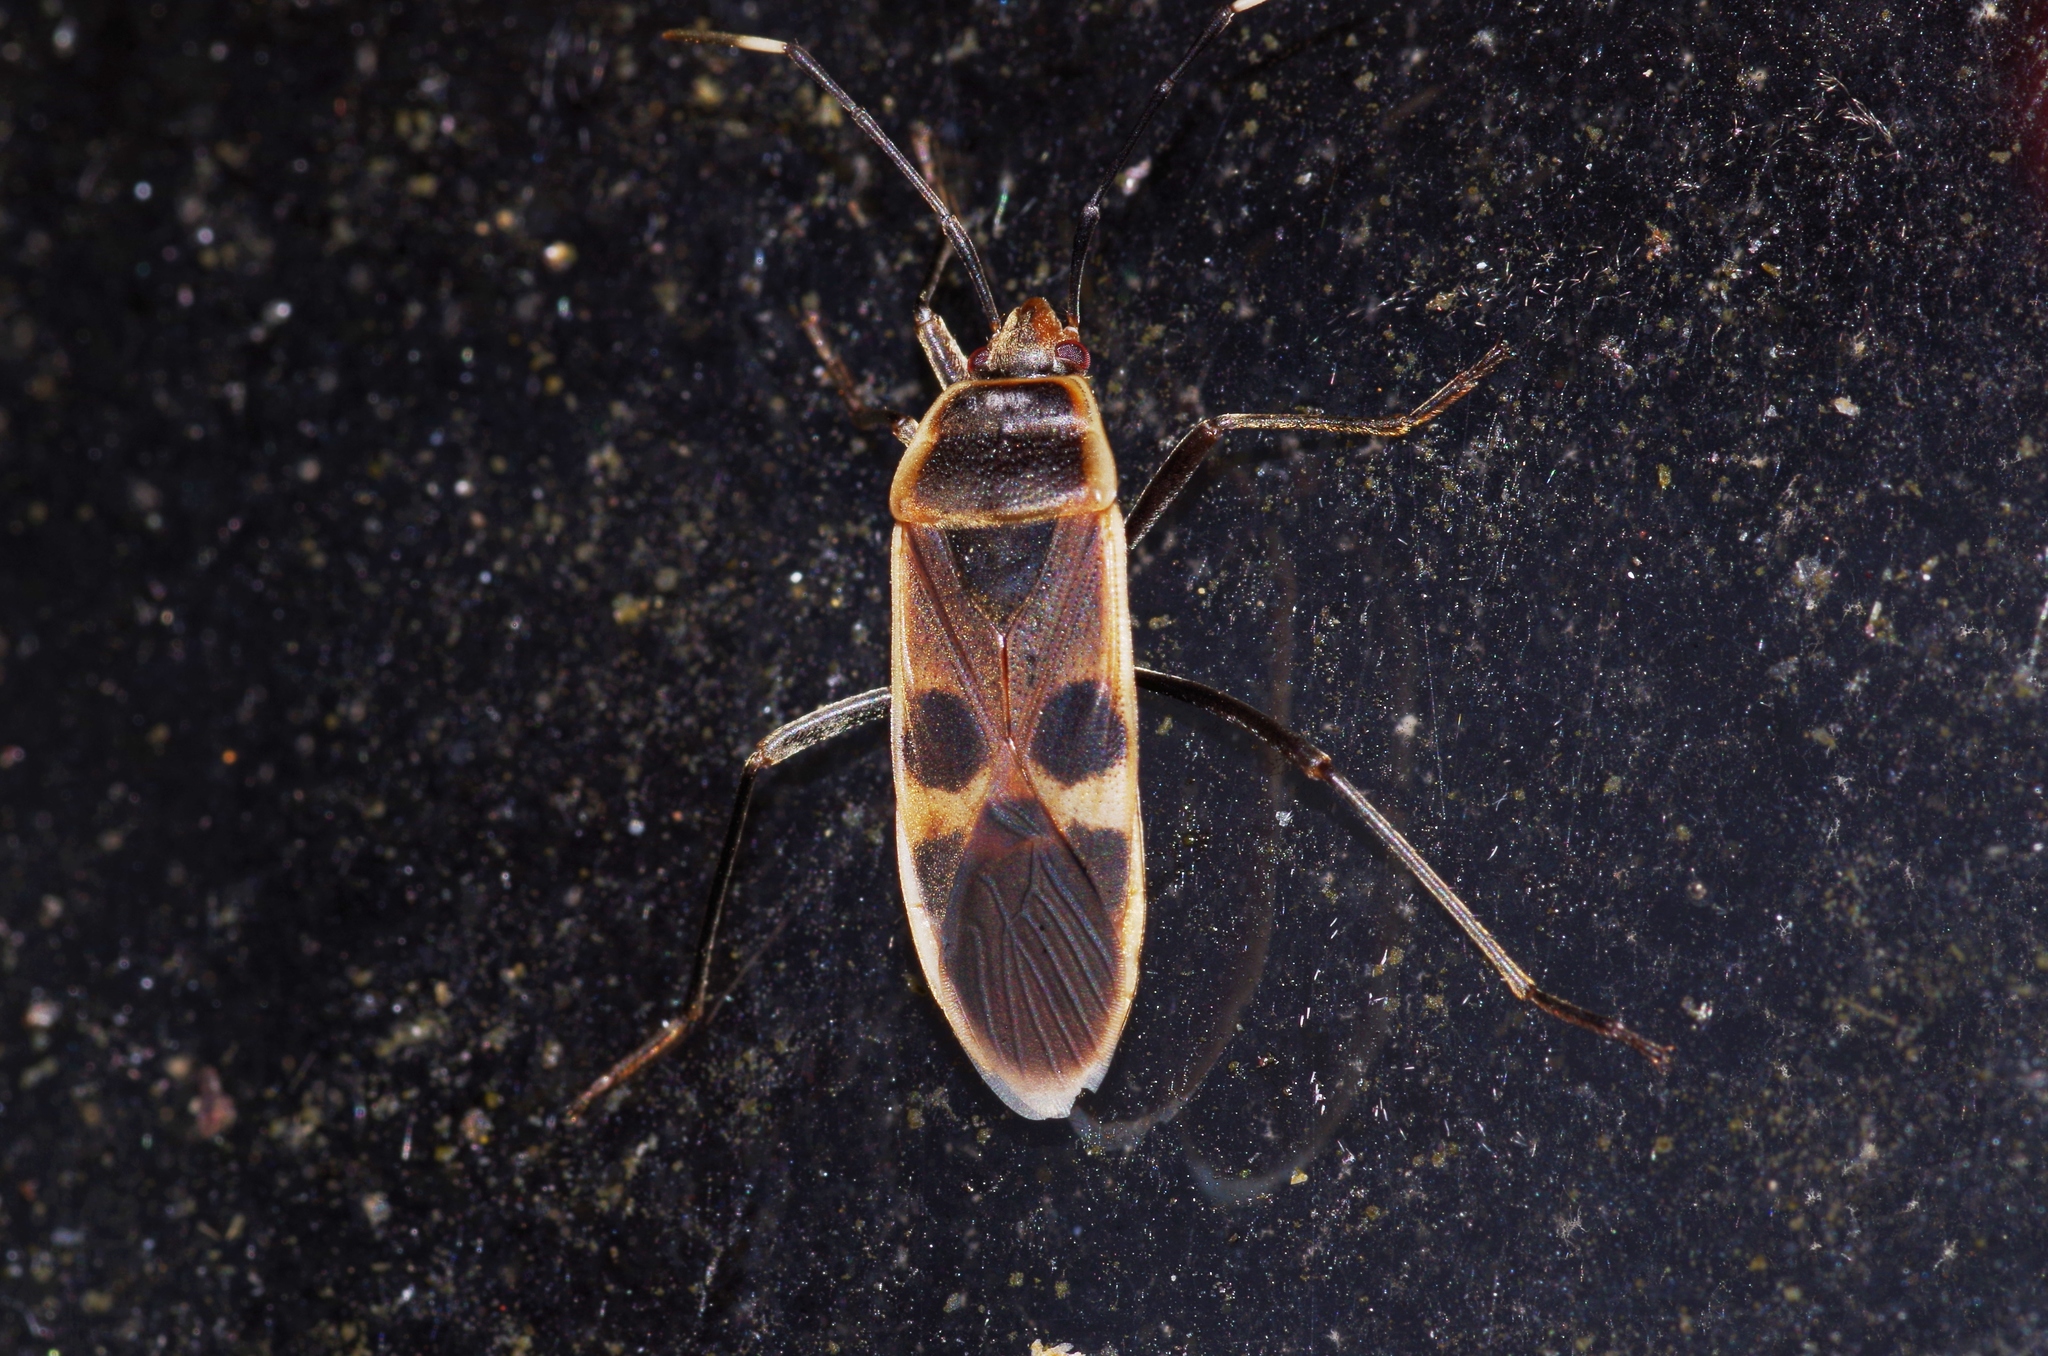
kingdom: Animalia
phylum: Arthropoda
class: Insecta
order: Hemiptera
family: Largidae
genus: Physopelta
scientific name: Physopelta gutta
